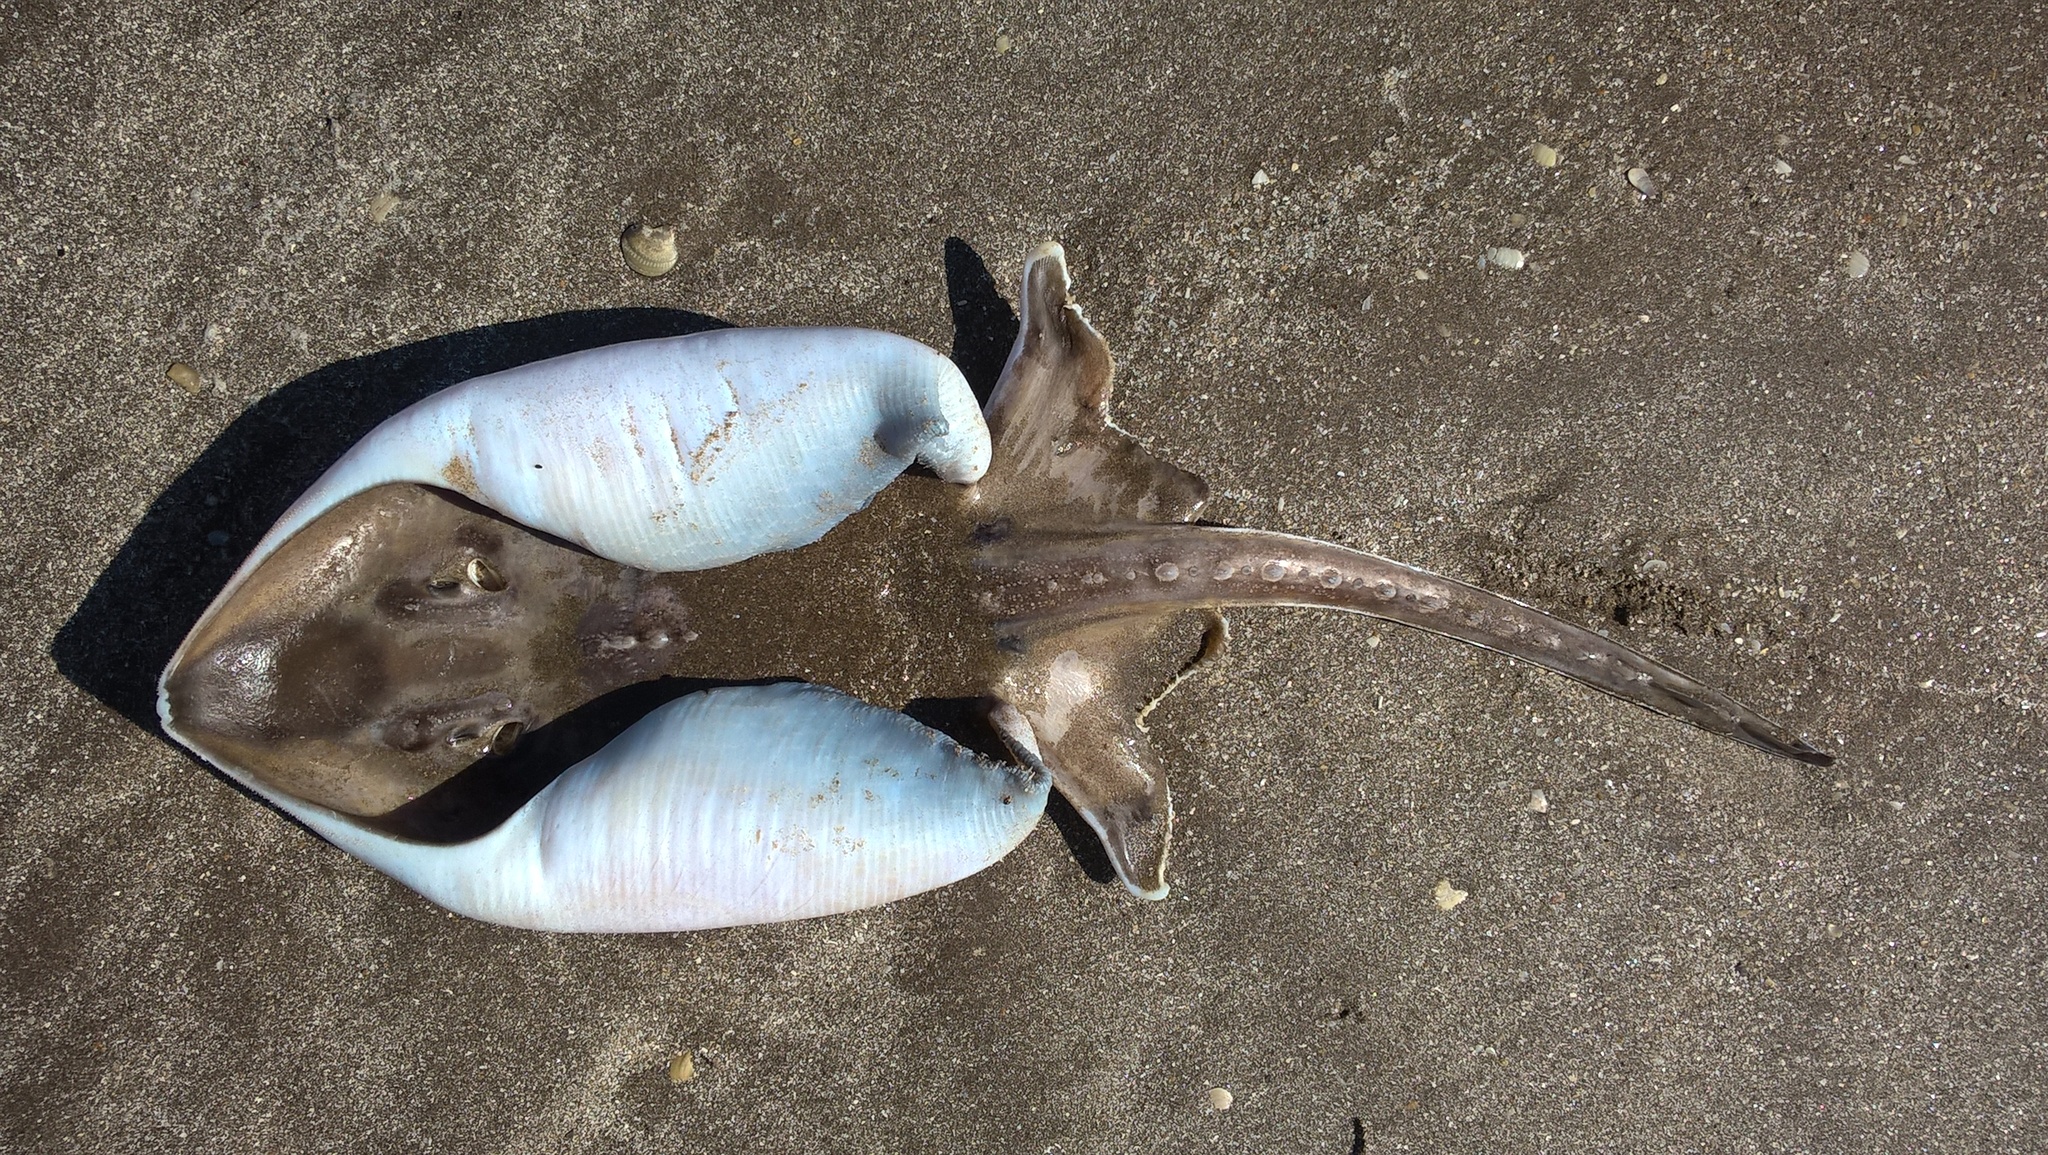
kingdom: Animalia
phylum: Chordata
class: Elasmobranchii
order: Rajiformes
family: Arhynchobatidae
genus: Sympterygia
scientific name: Sympterygia bonapartii
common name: Smallnose fanskate
